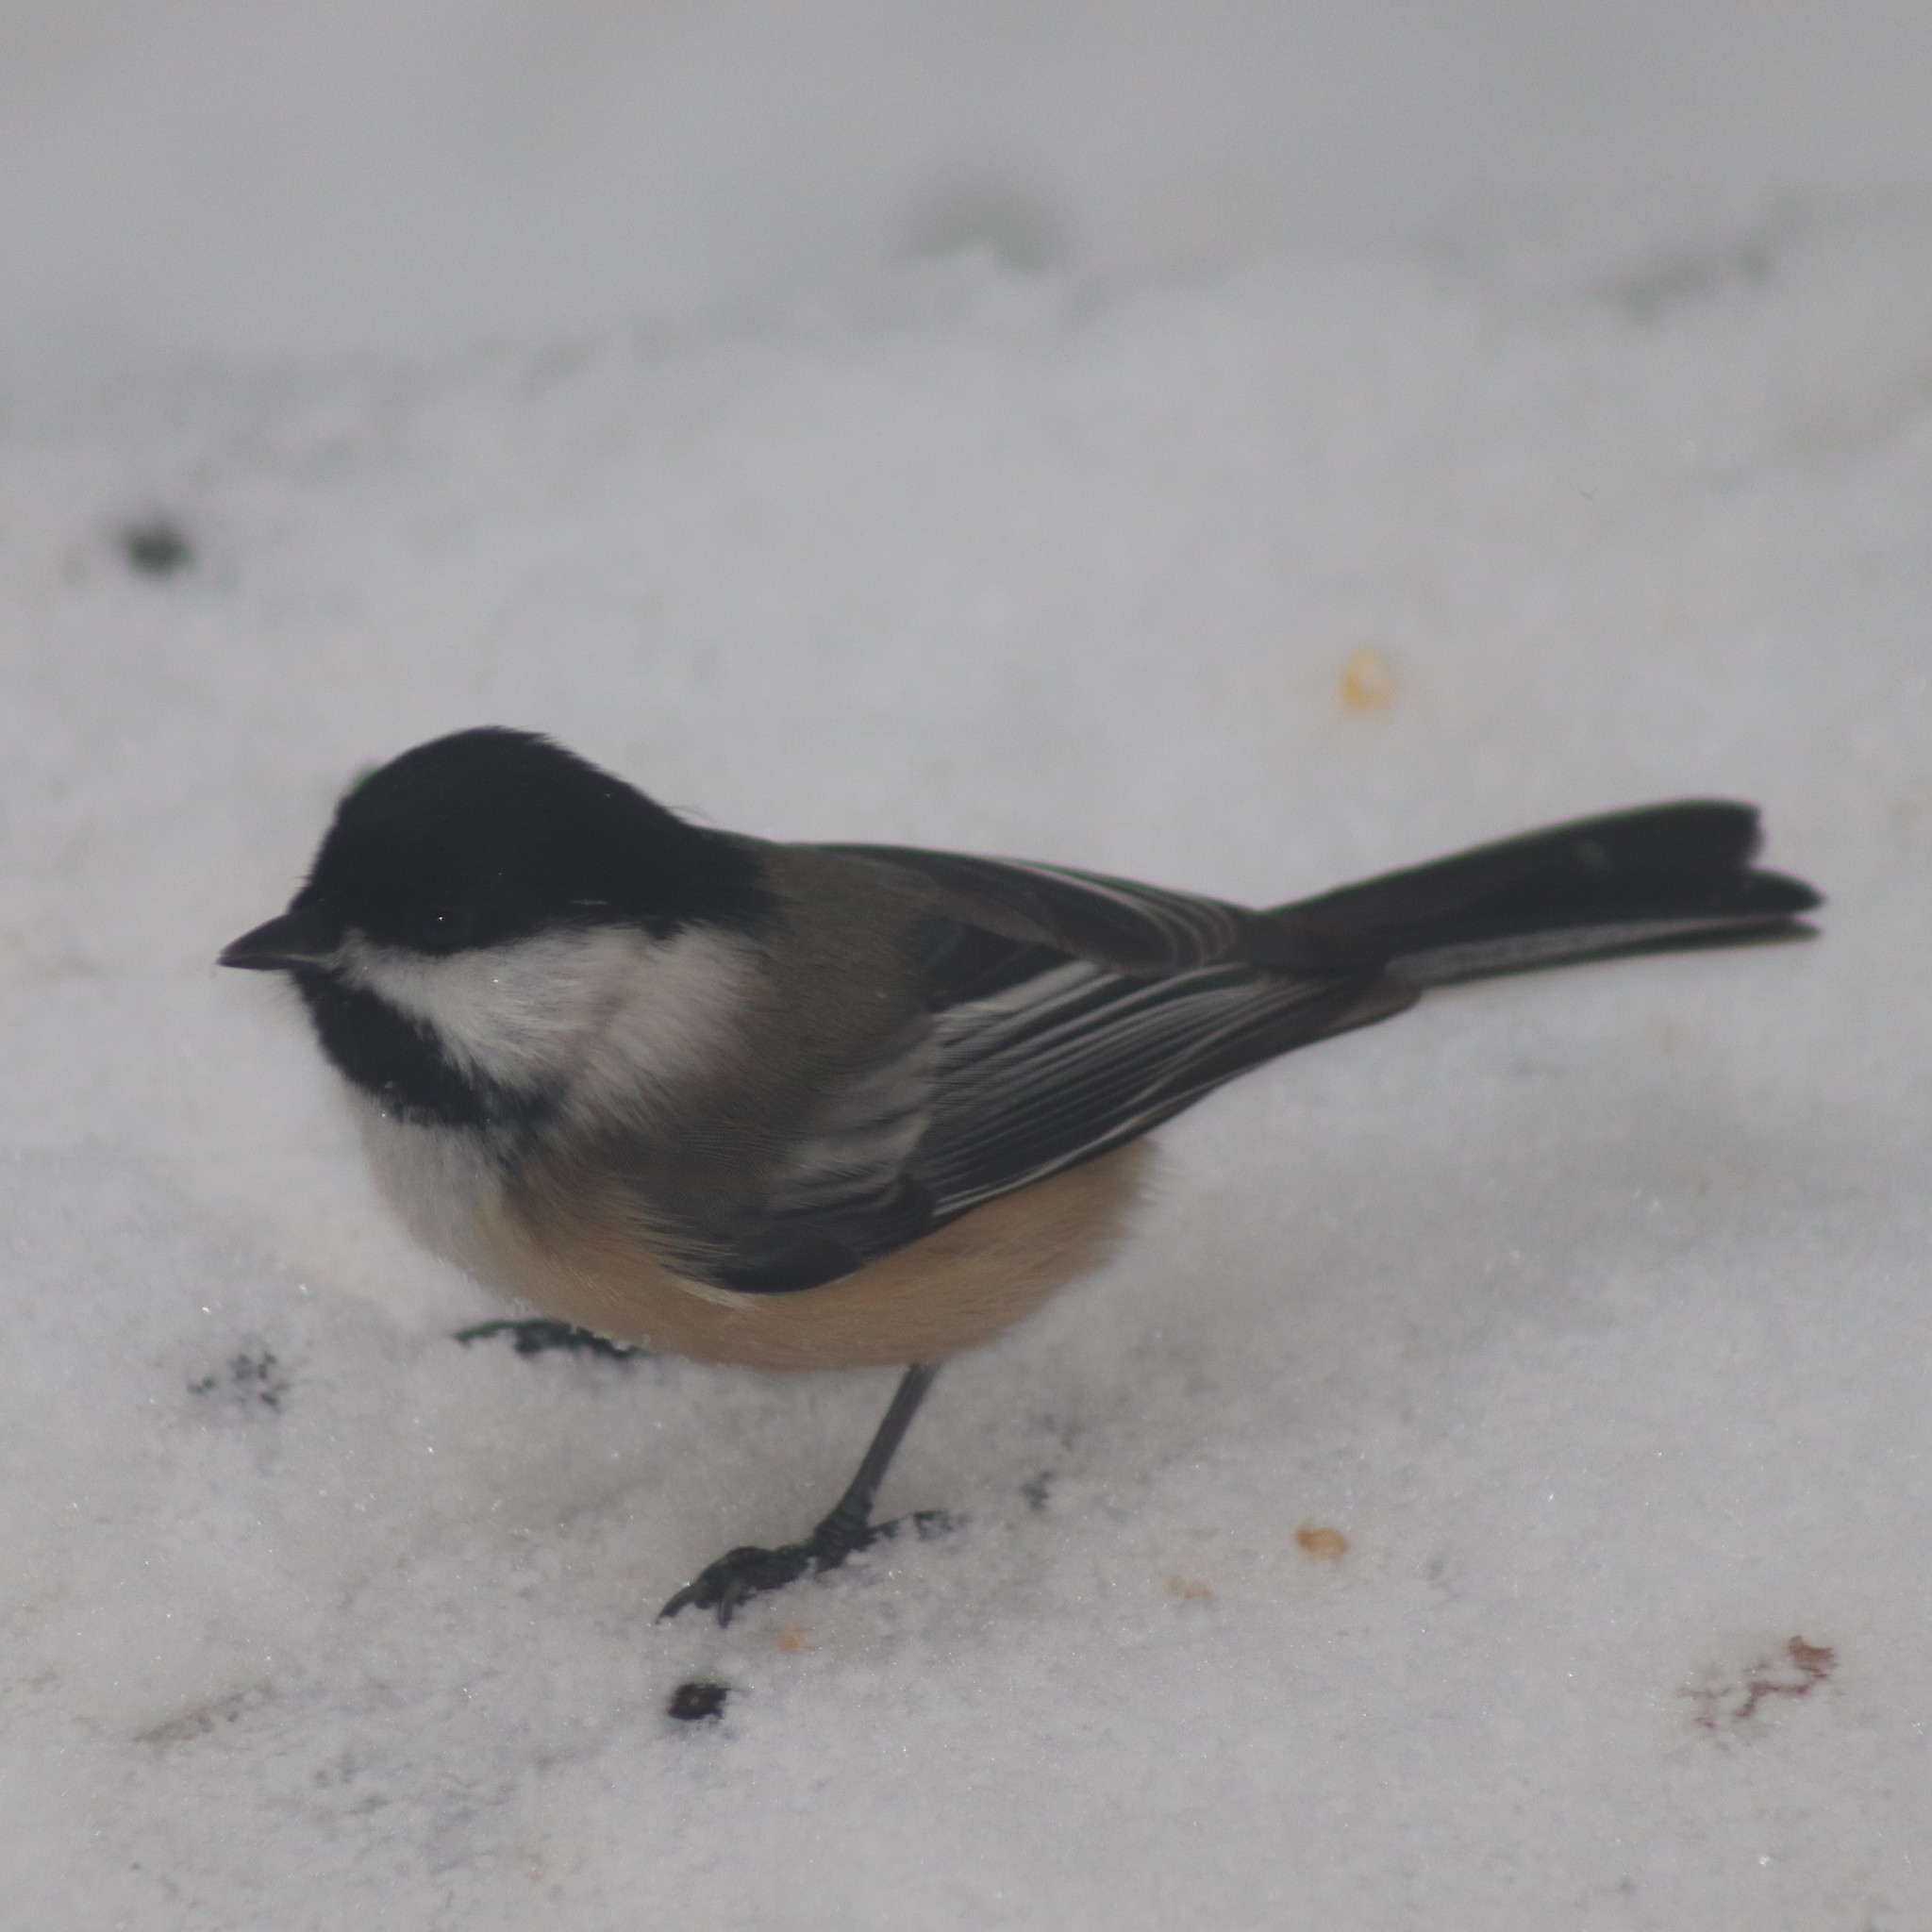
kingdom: Animalia
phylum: Chordata
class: Aves
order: Passeriformes
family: Paridae
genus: Poecile
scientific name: Poecile atricapillus
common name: Black-capped chickadee
